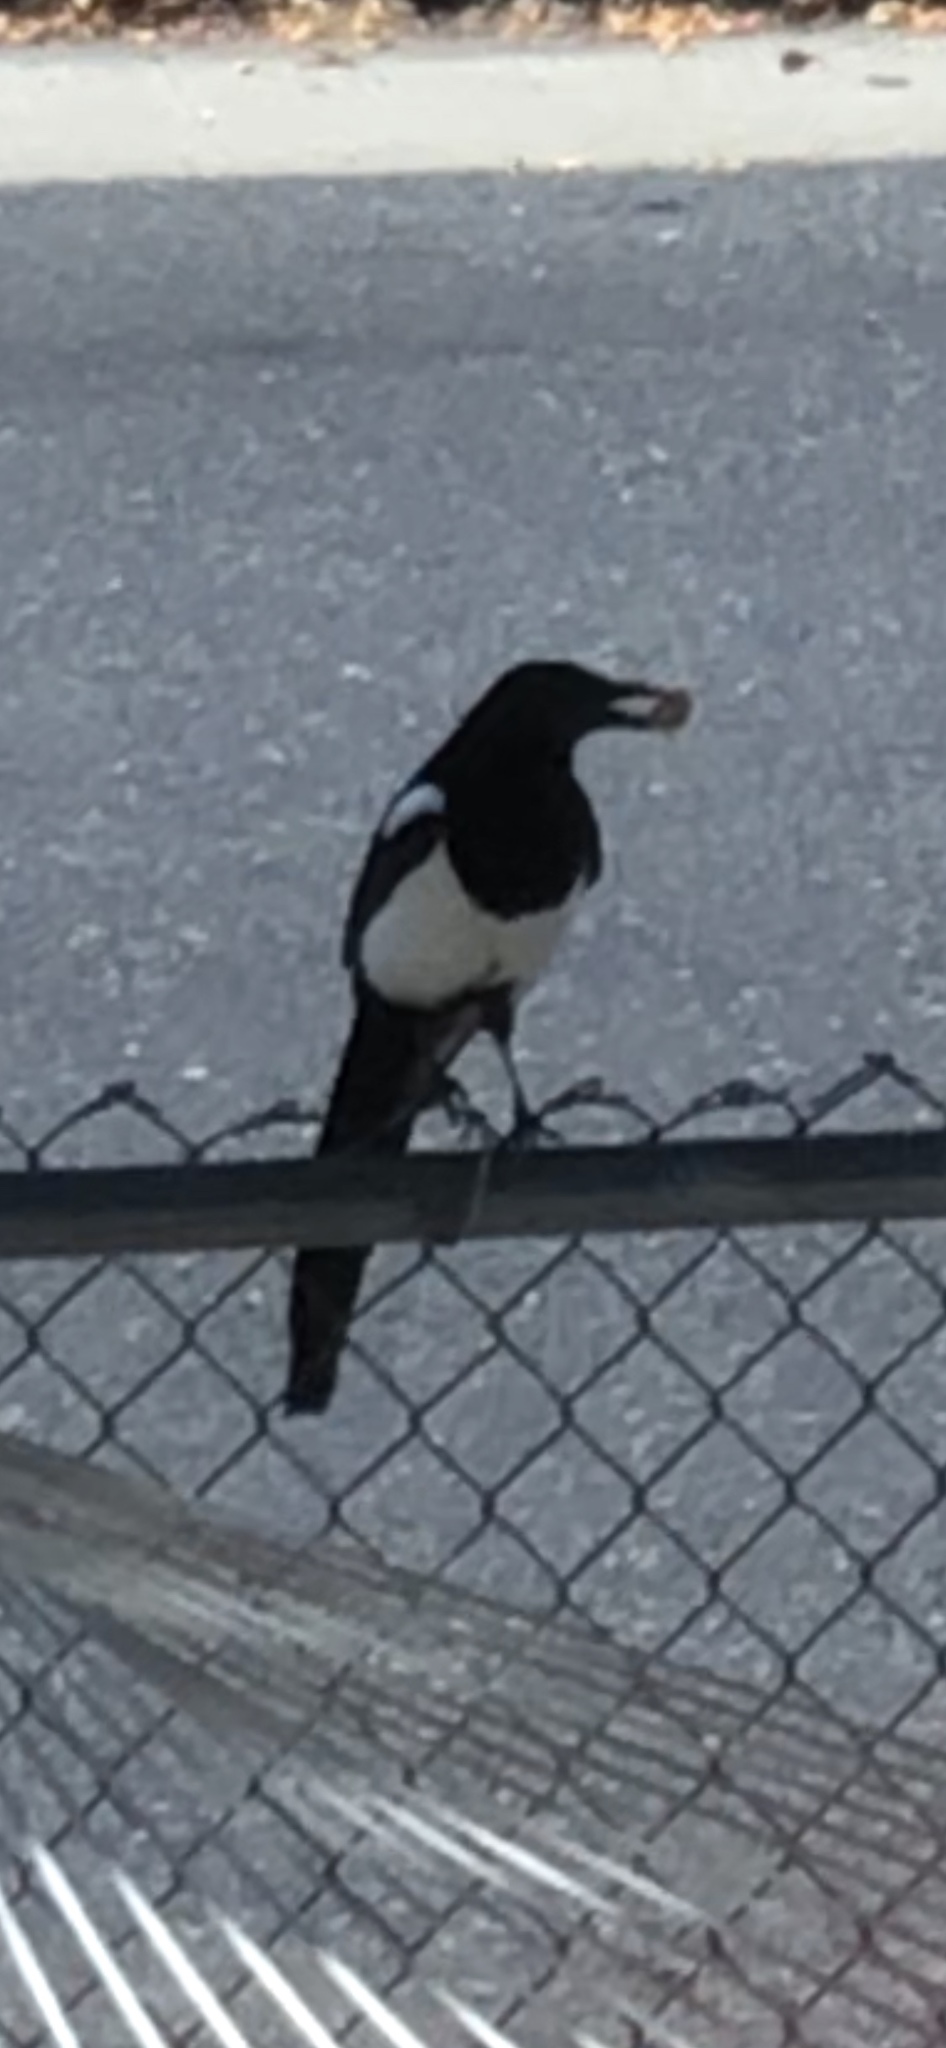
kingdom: Animalia
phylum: Chordata
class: Aves
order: Passeriformes
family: Corvidae
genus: Pica
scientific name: Pica hudsonia
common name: Black-billed magpie
